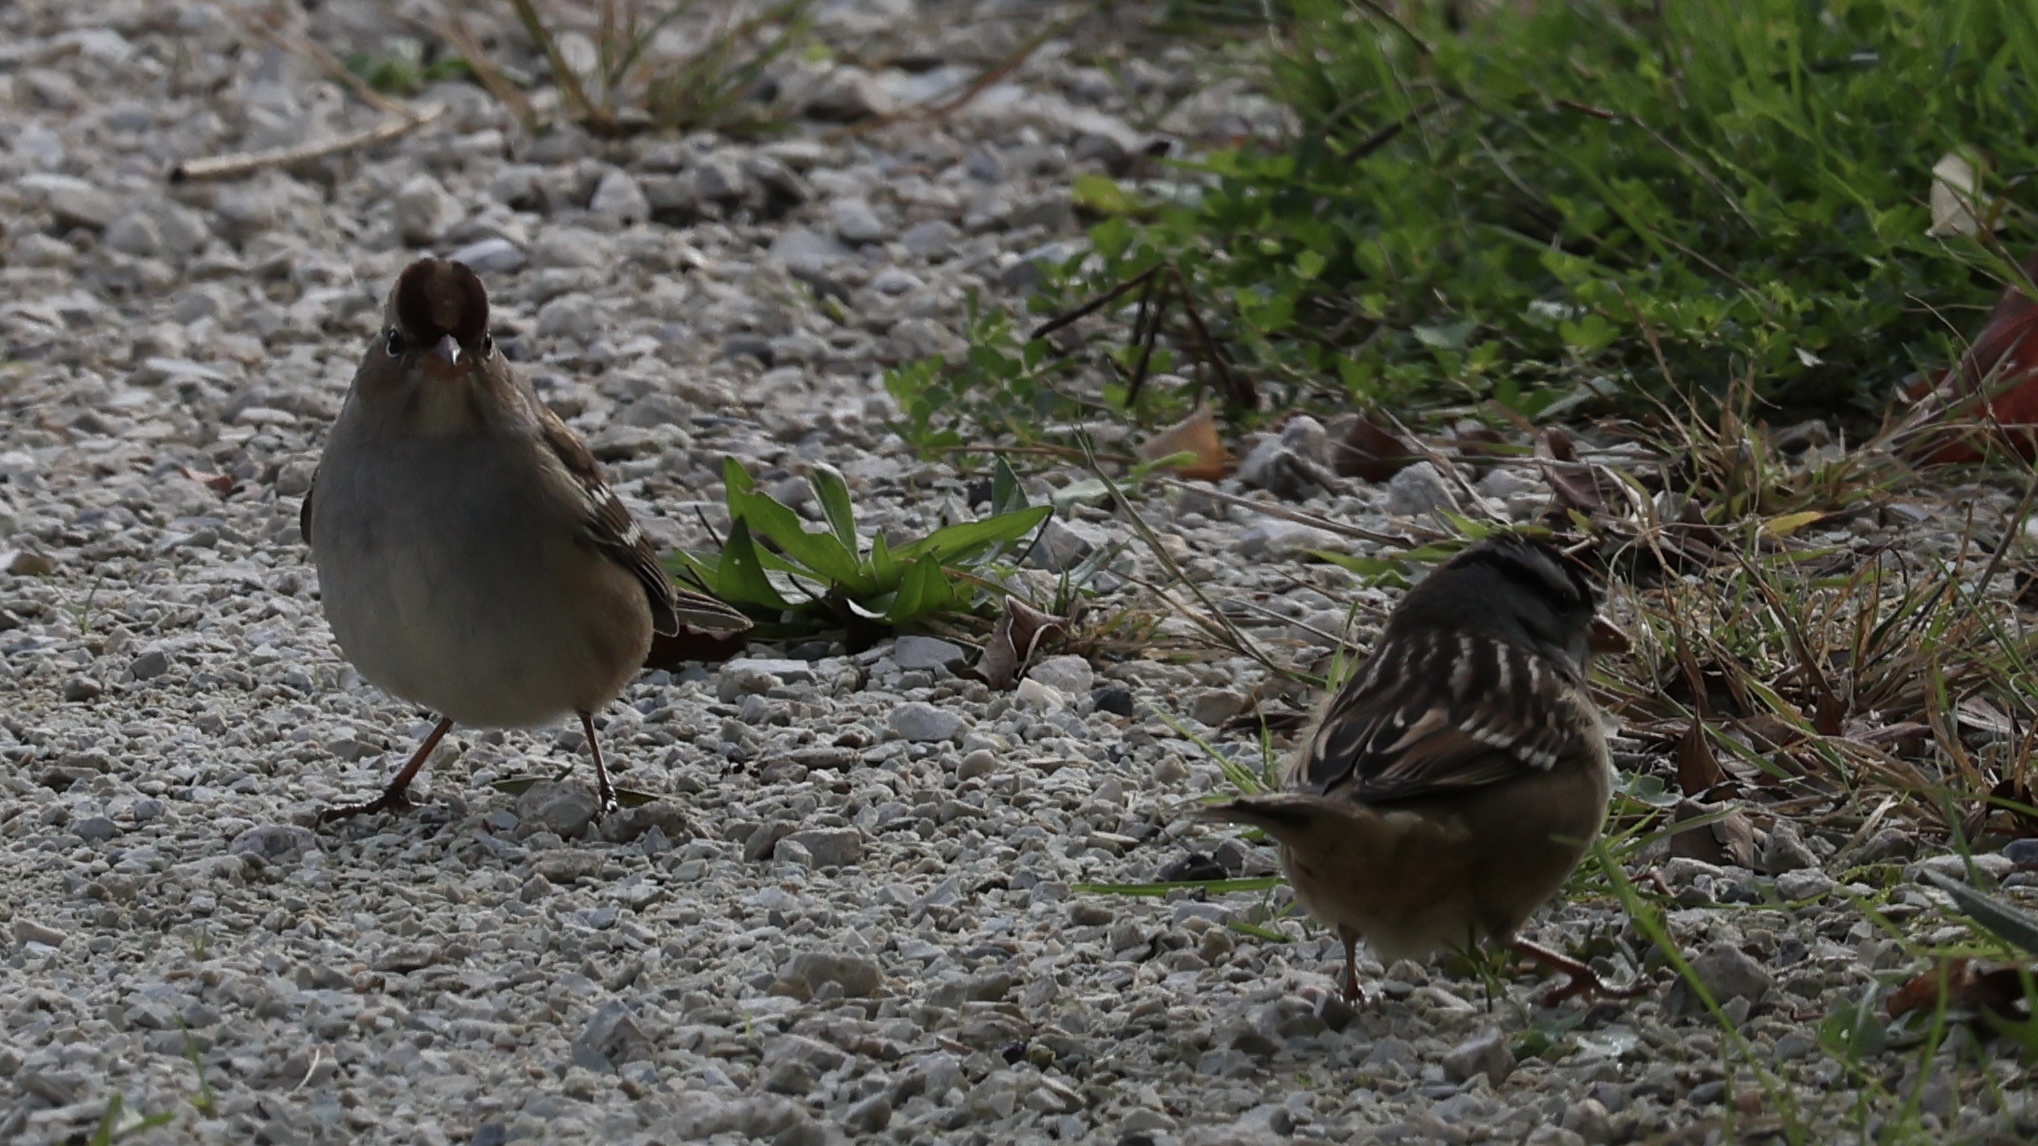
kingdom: Animalia
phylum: Chordata
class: Aves
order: Passeriformes
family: Passerellidae
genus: Zonotrichia
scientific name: Zonotrichia leucophrys
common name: White-crowned sparrow
